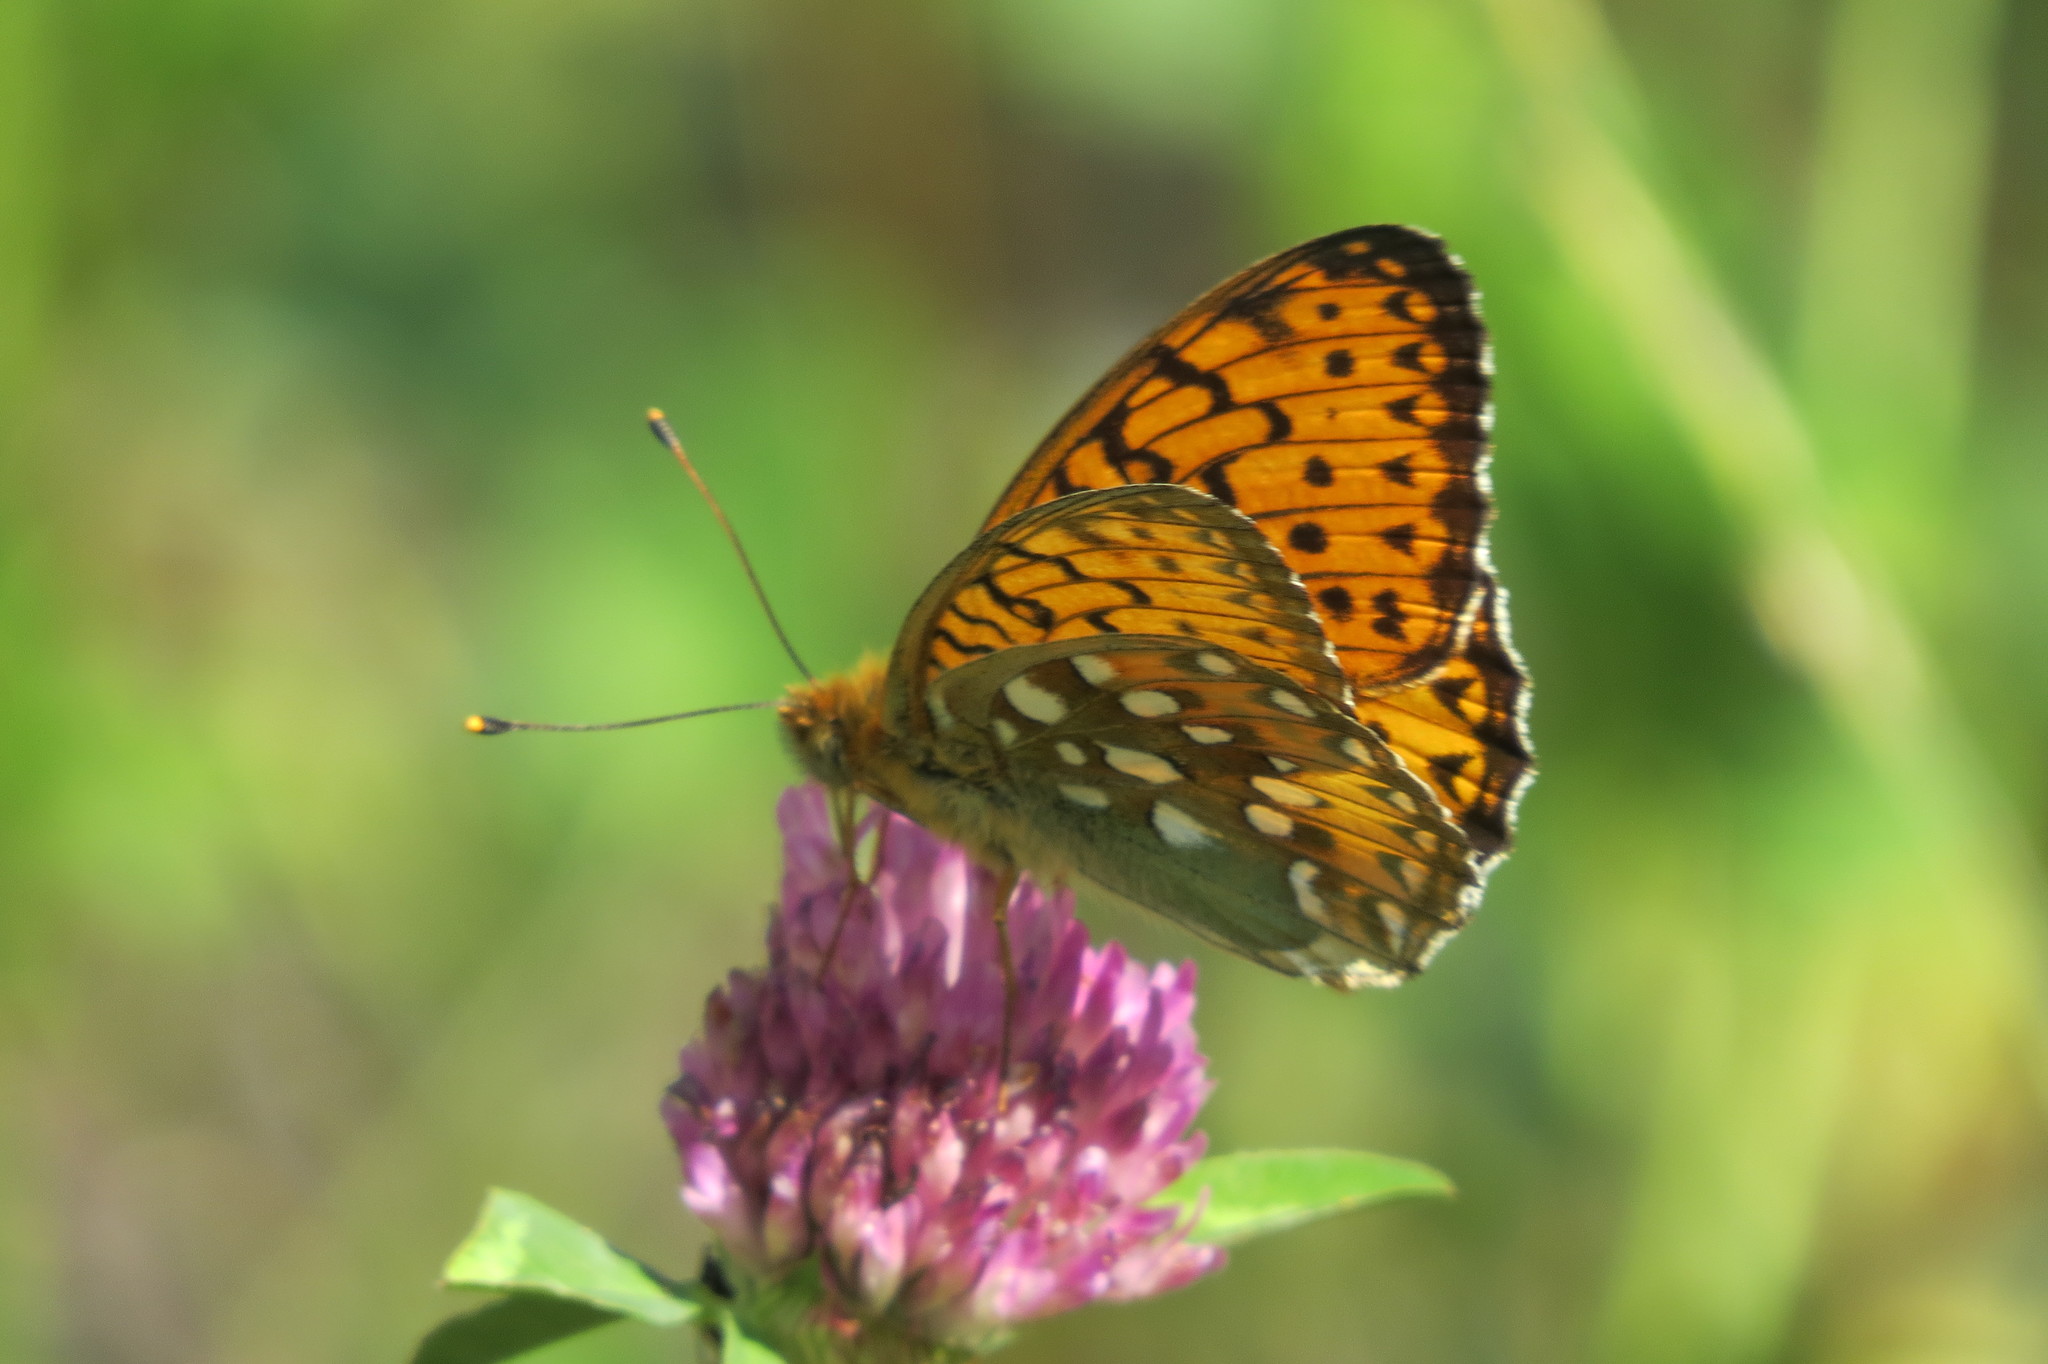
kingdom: Animalia
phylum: Arthropoda
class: Insecta
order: Lepidoptera
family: Nymphalidae
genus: Speyeria
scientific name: Speyeria aglaja
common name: Dark green fritillary
